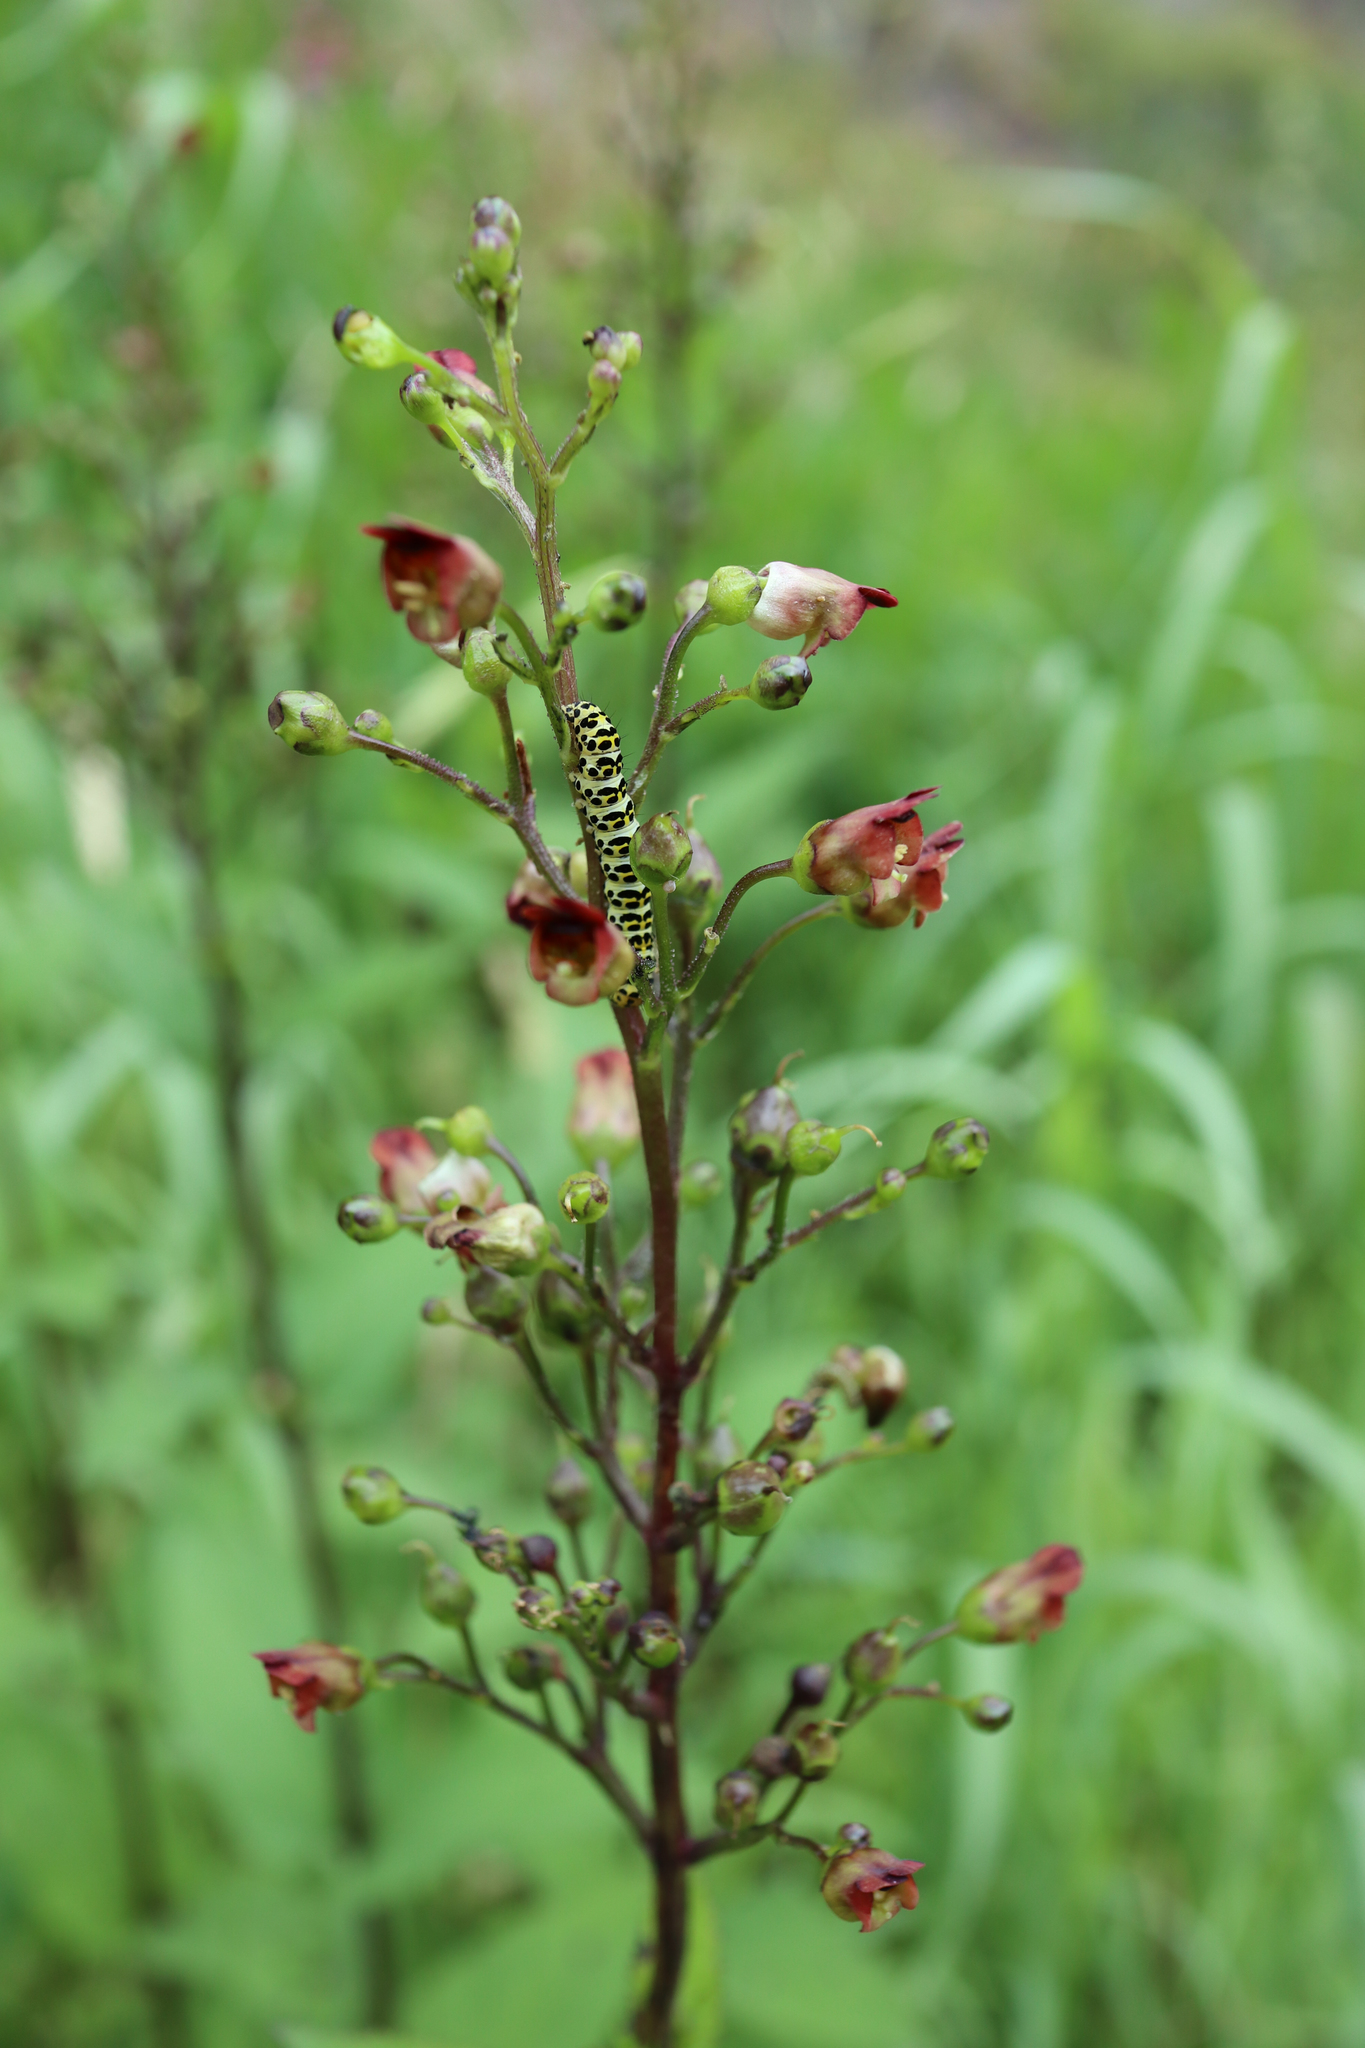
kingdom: Plantae
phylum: Tracheophyta
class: Magnoliopsida
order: Lamiales
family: Scrophulariaceae
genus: Scrophularia
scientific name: Scrophularia nodosa
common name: Common figwort
